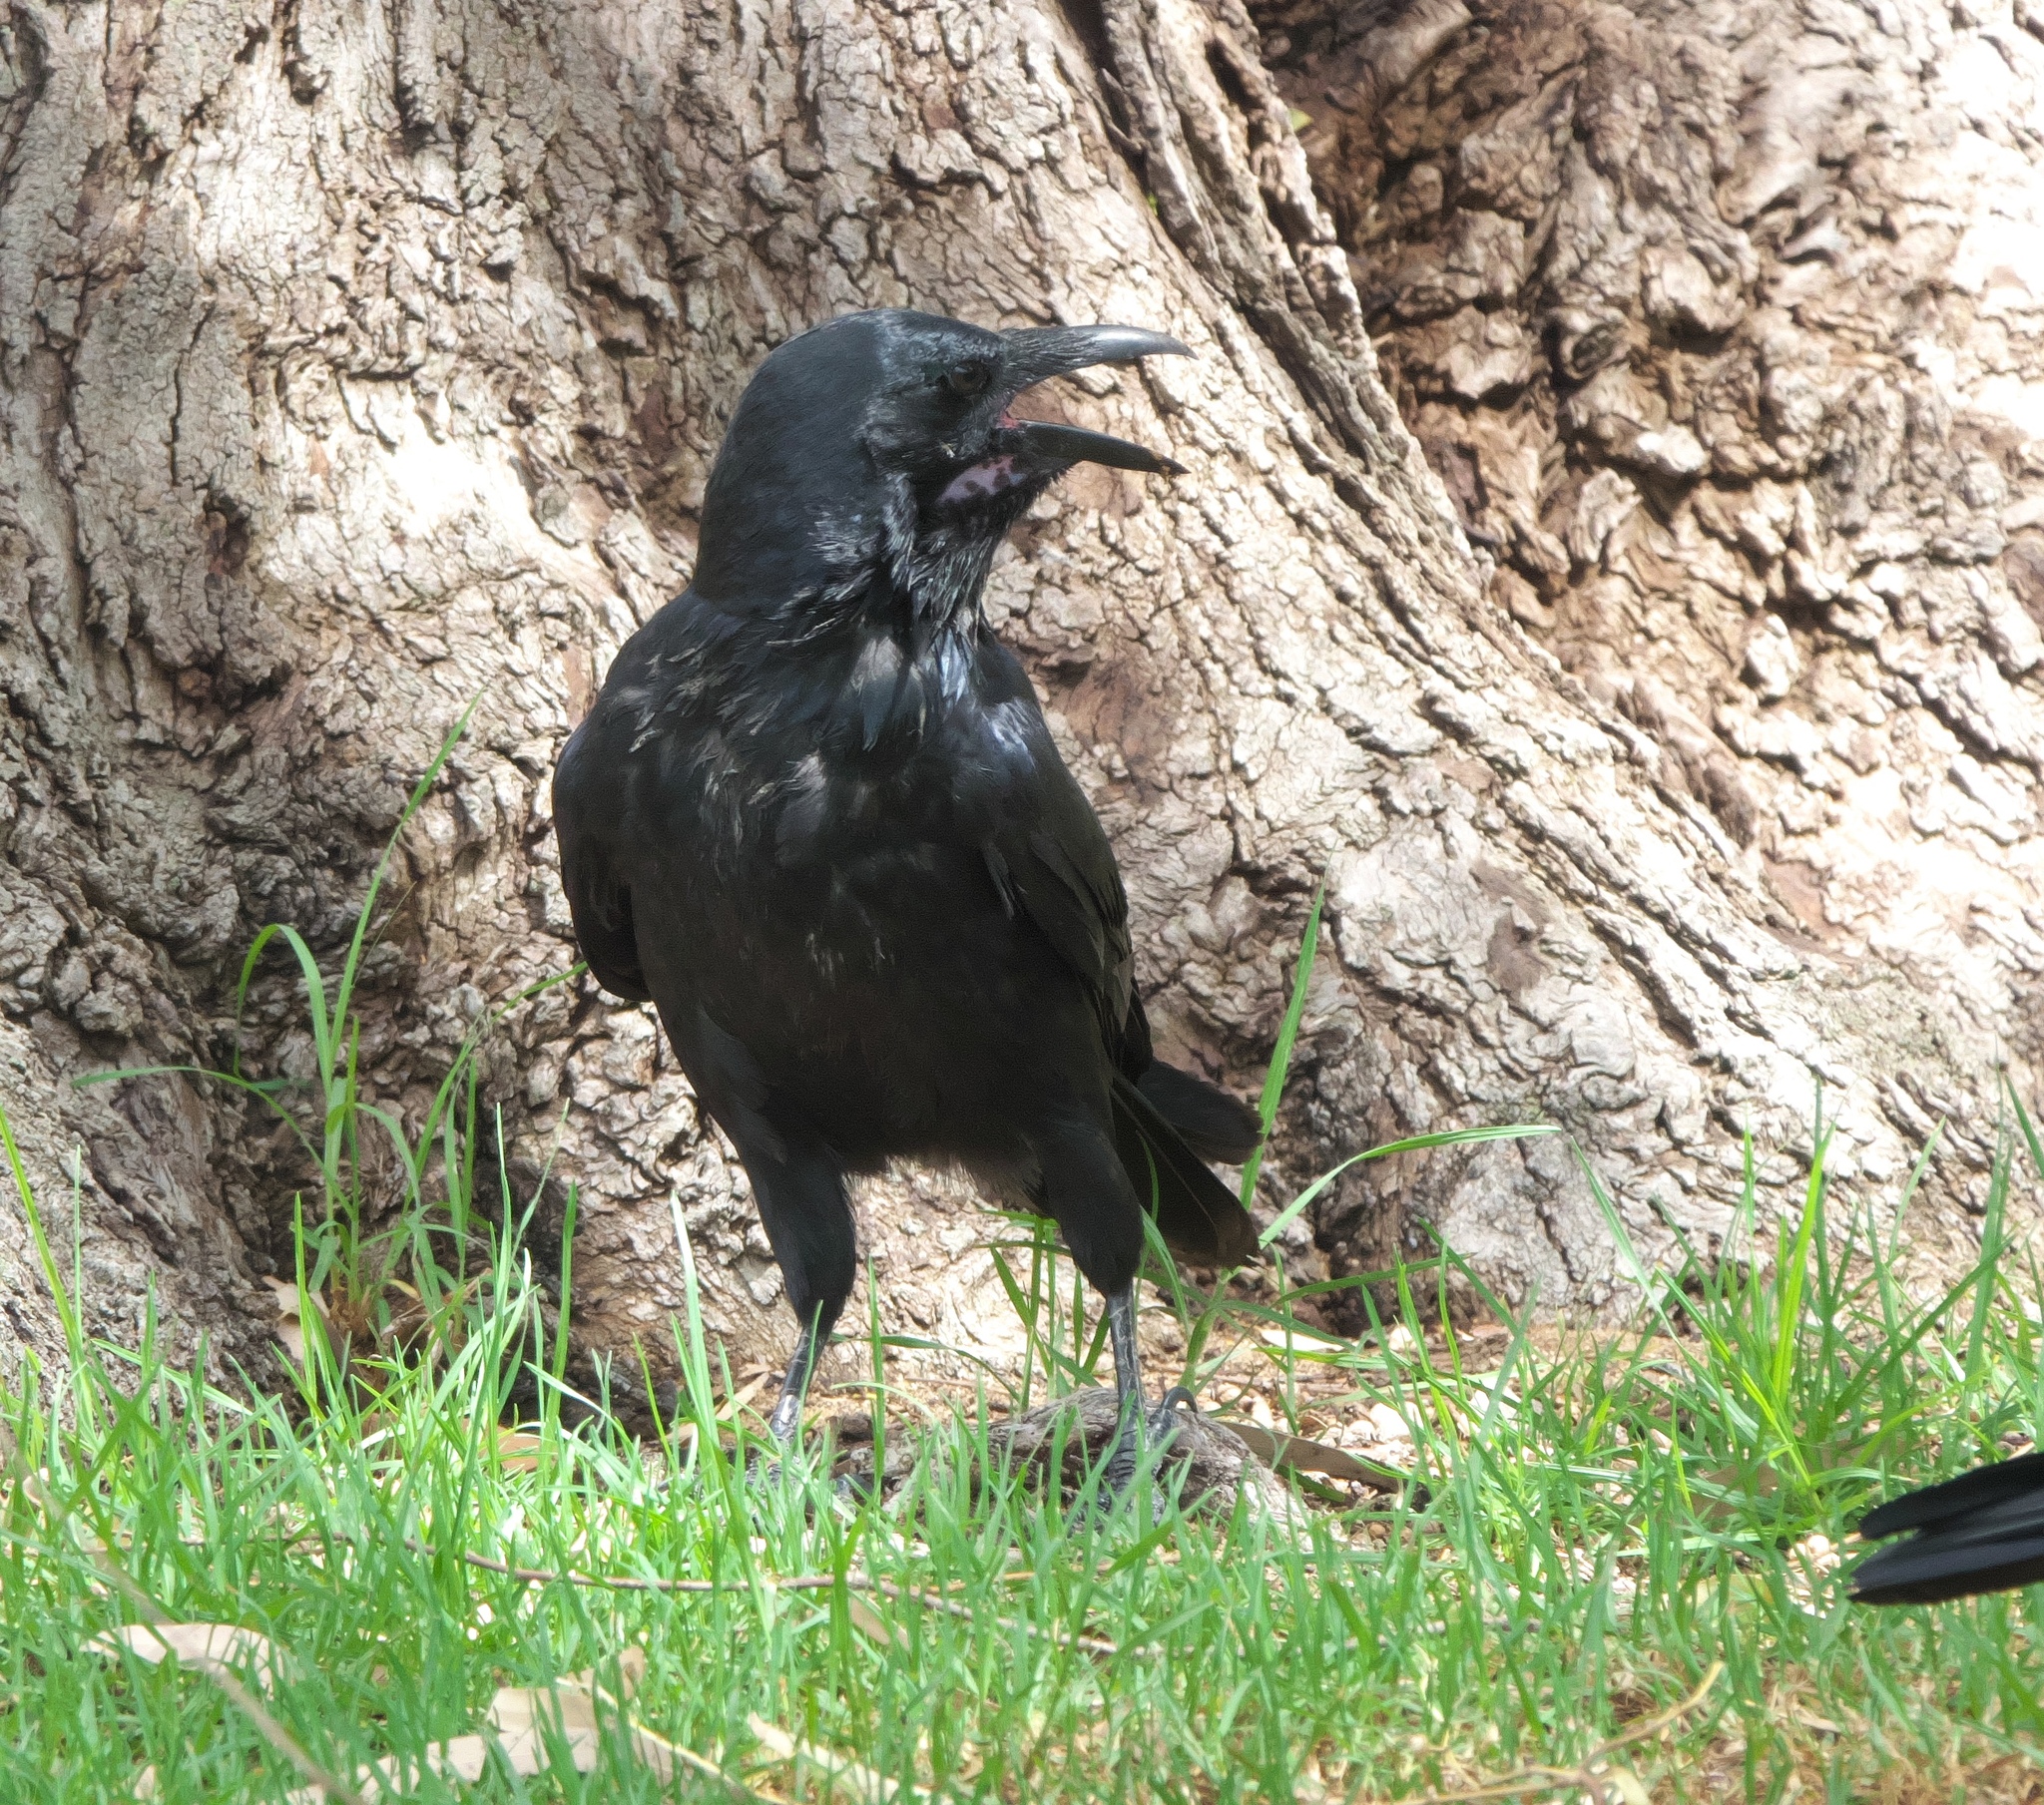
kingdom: Animalia
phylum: Chordata
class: Aves
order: Passeriformes
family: Corvidae
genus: Corvus
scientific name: Corvus coronoides
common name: Australian raven
